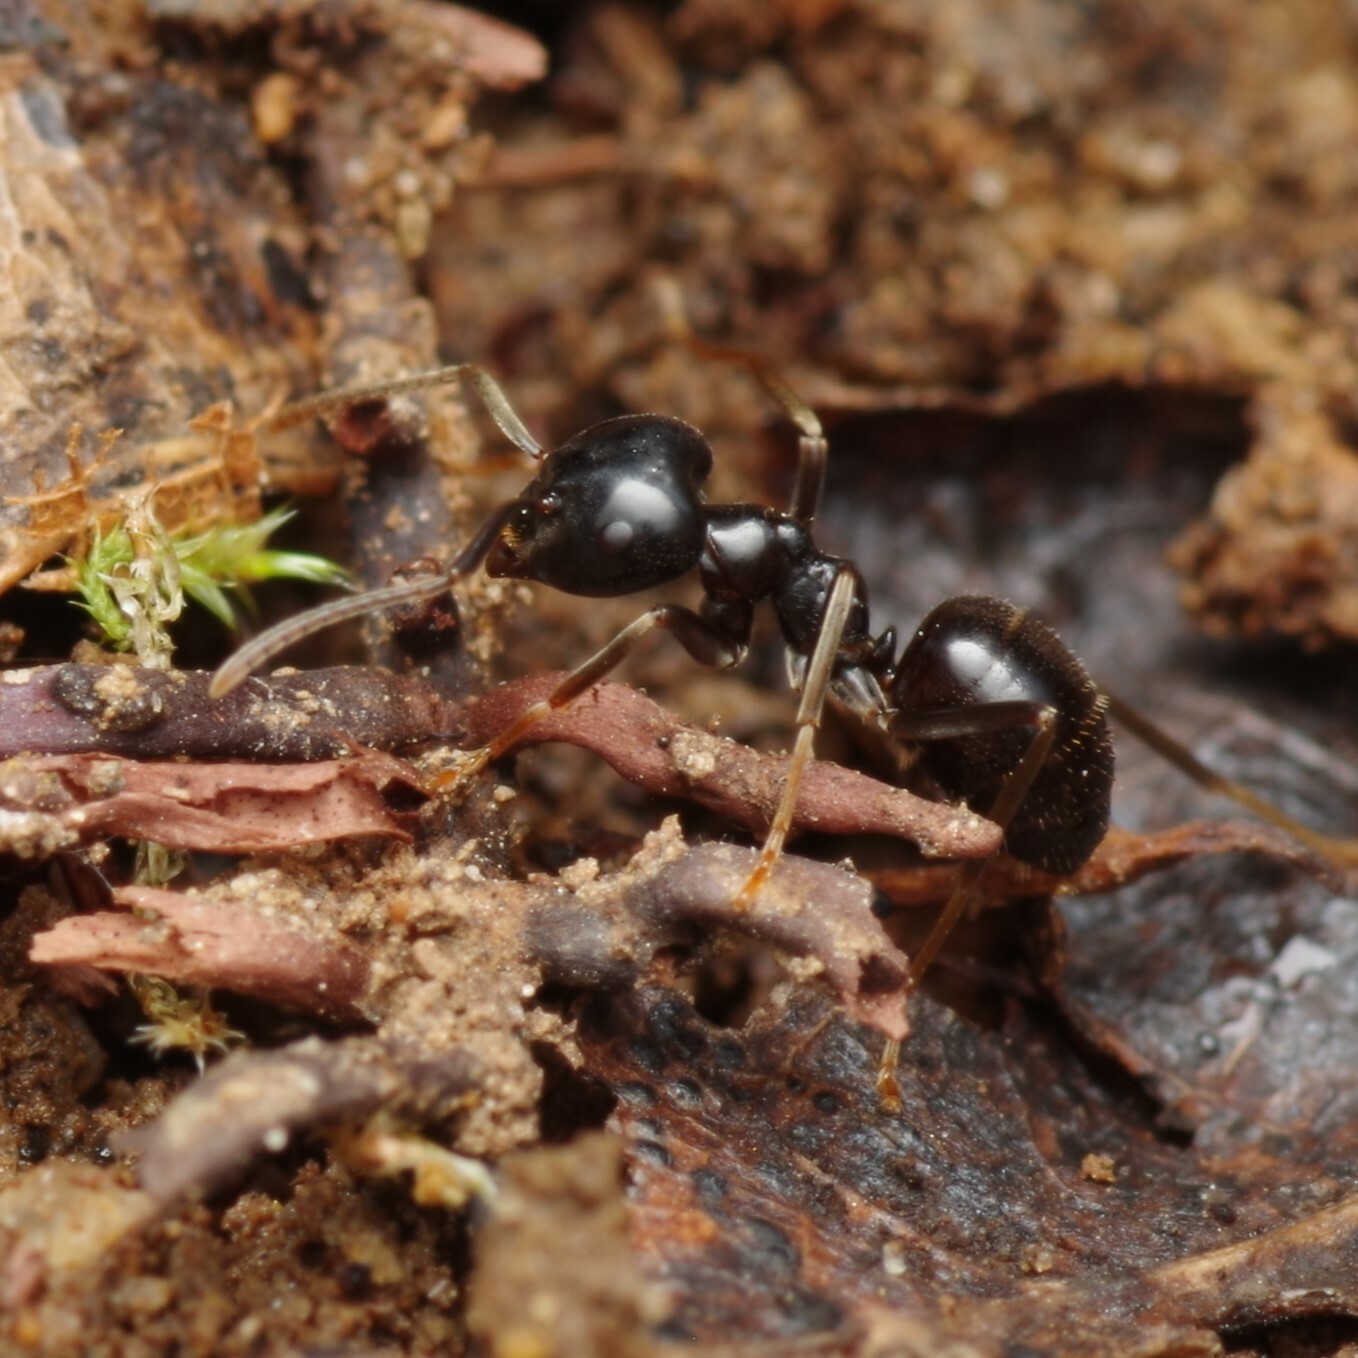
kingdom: Animalia
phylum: Arthropoda
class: Insecta
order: Hymenoptera
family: Formicidae
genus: Lasius
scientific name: Lasius fuliginosus
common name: Jet ant
